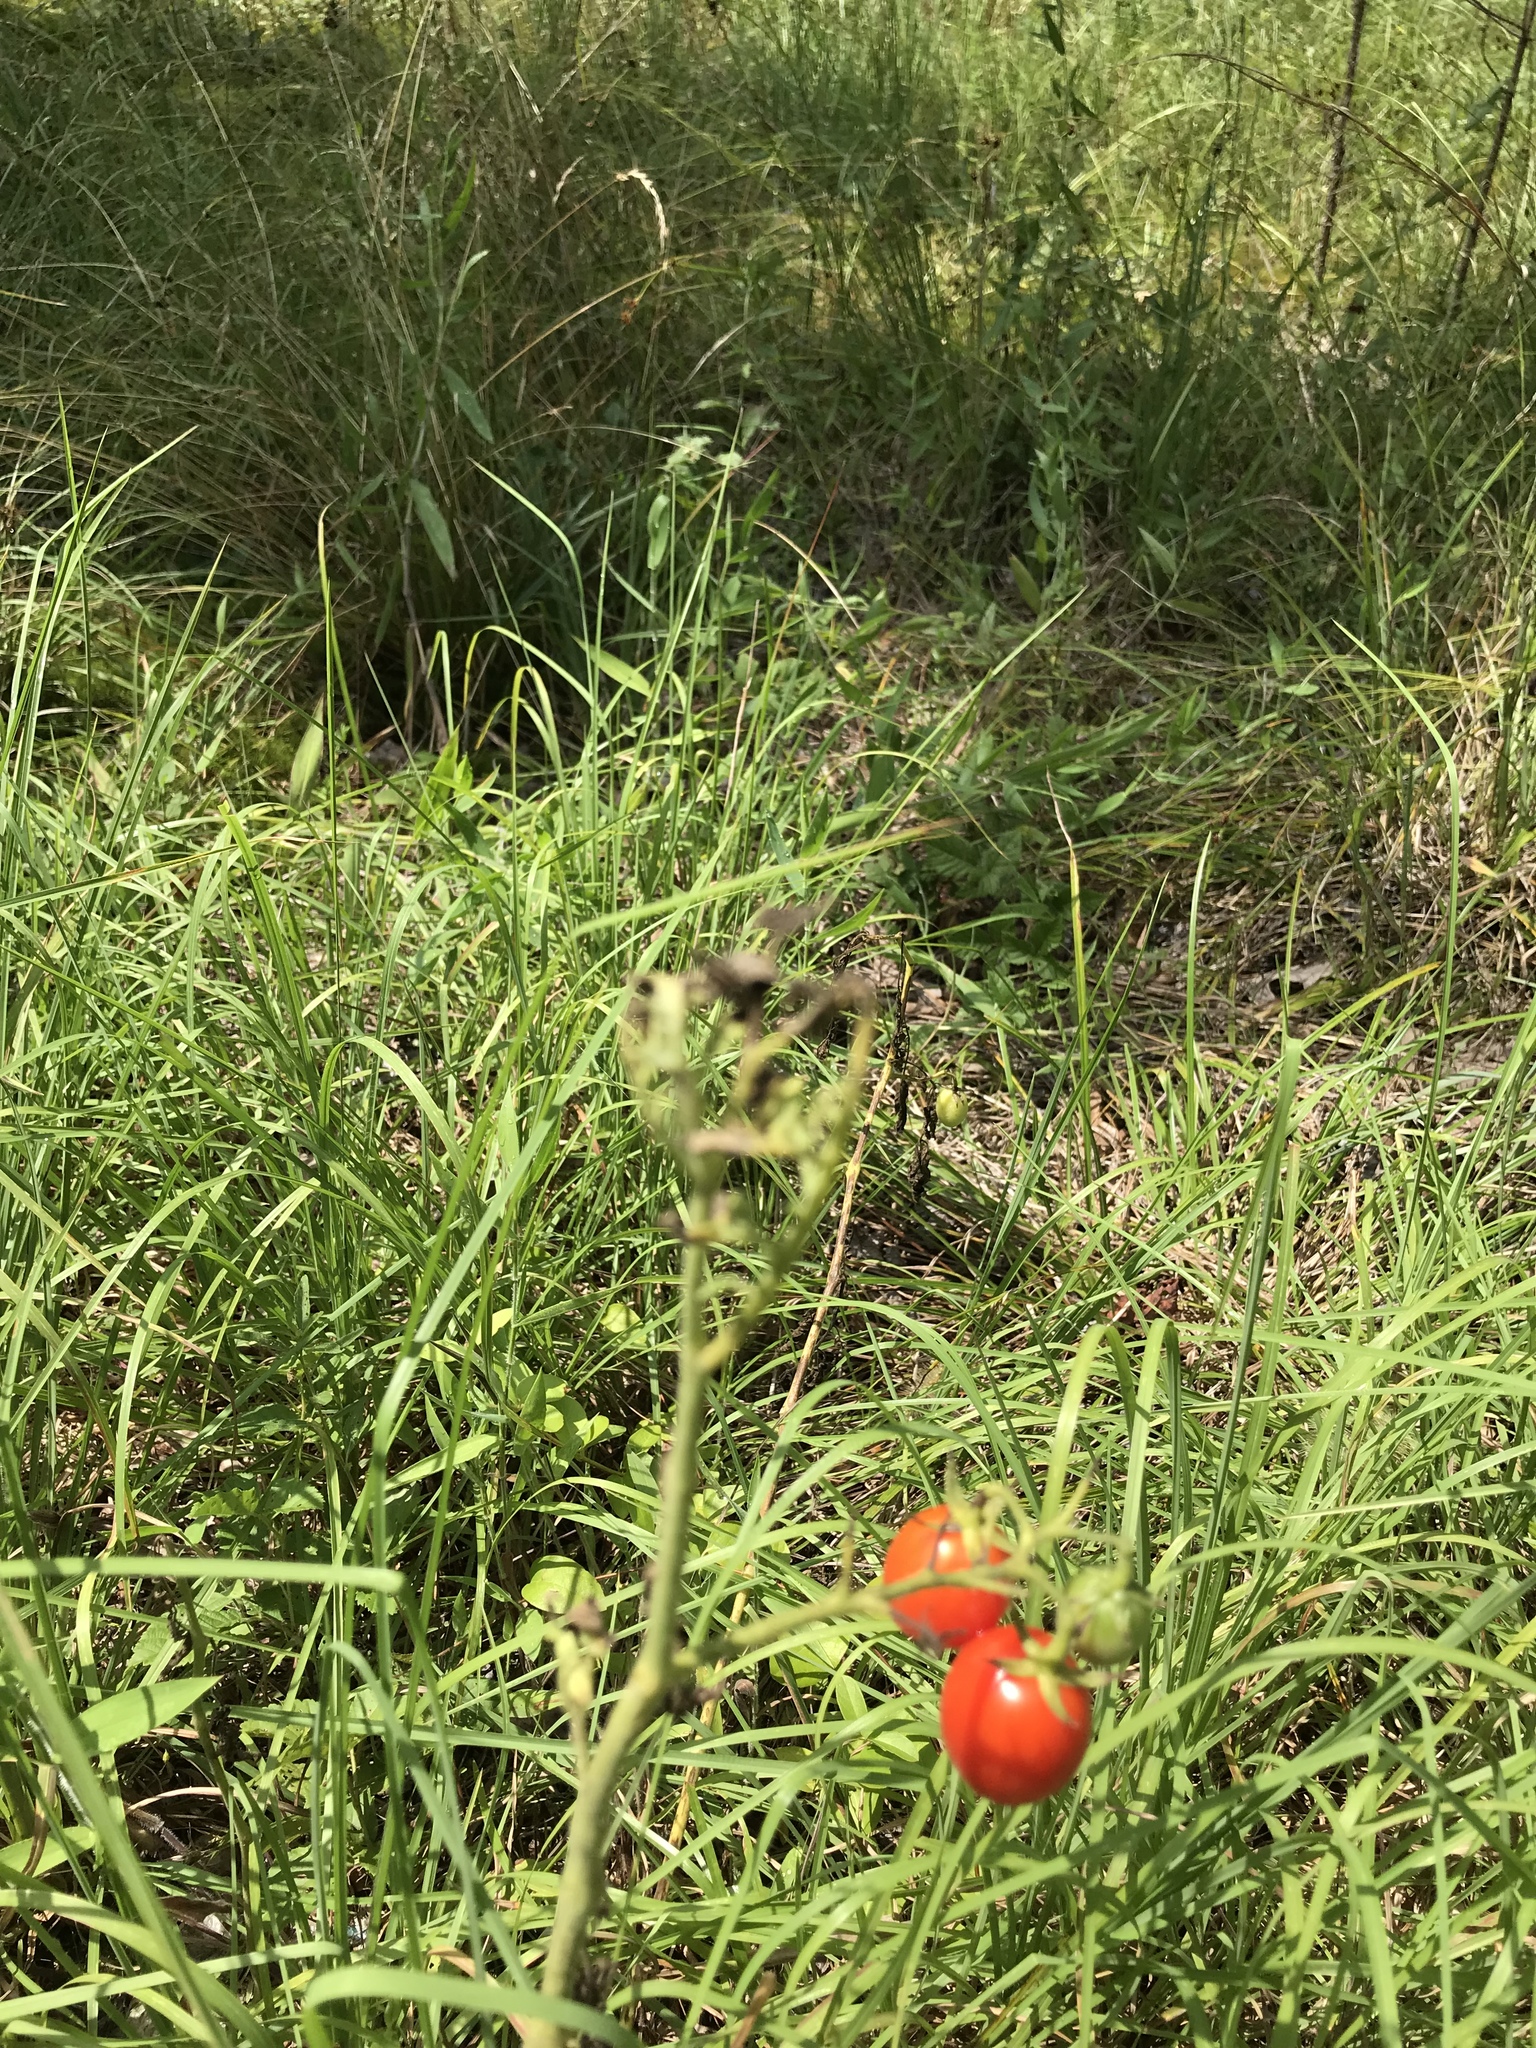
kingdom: Plantae
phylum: Tracheophyta
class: Magnoliopsida
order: Solanales
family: Solanaceae
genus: Solanum
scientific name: Solanum lycopersicum
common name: Garden tomato
